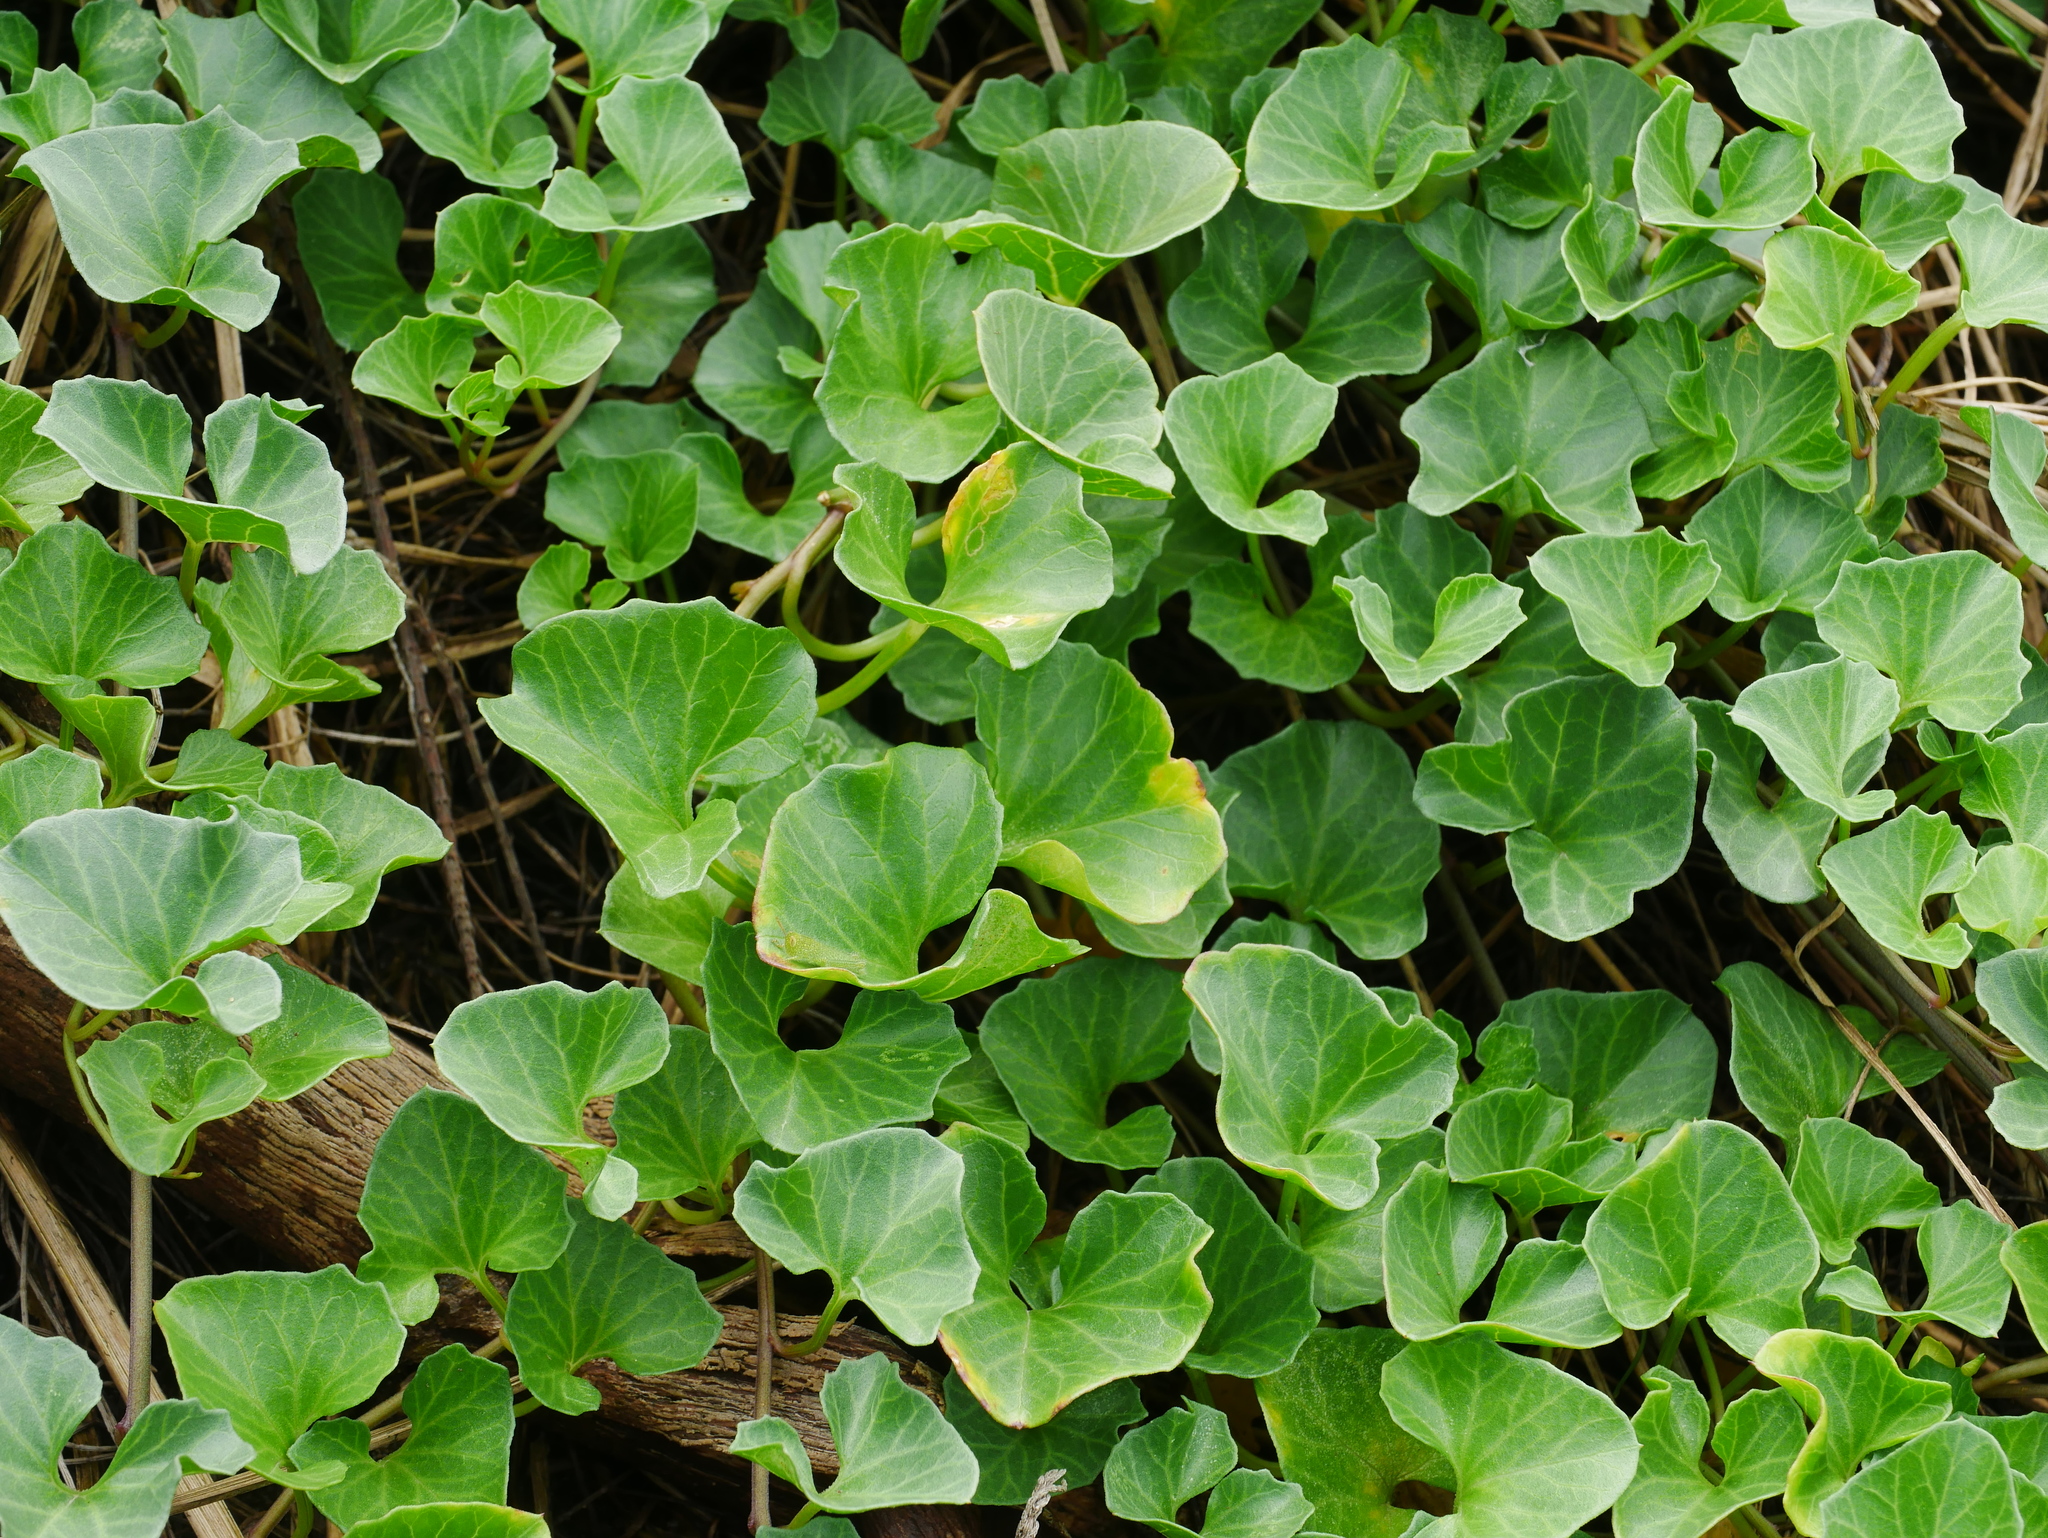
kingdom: Plantae
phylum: Tracheophyta
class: Magnoliopsida
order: Solanales
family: Convolvulaceae
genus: Calystegia
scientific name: Calystegia soldanella
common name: Sea bindweed
